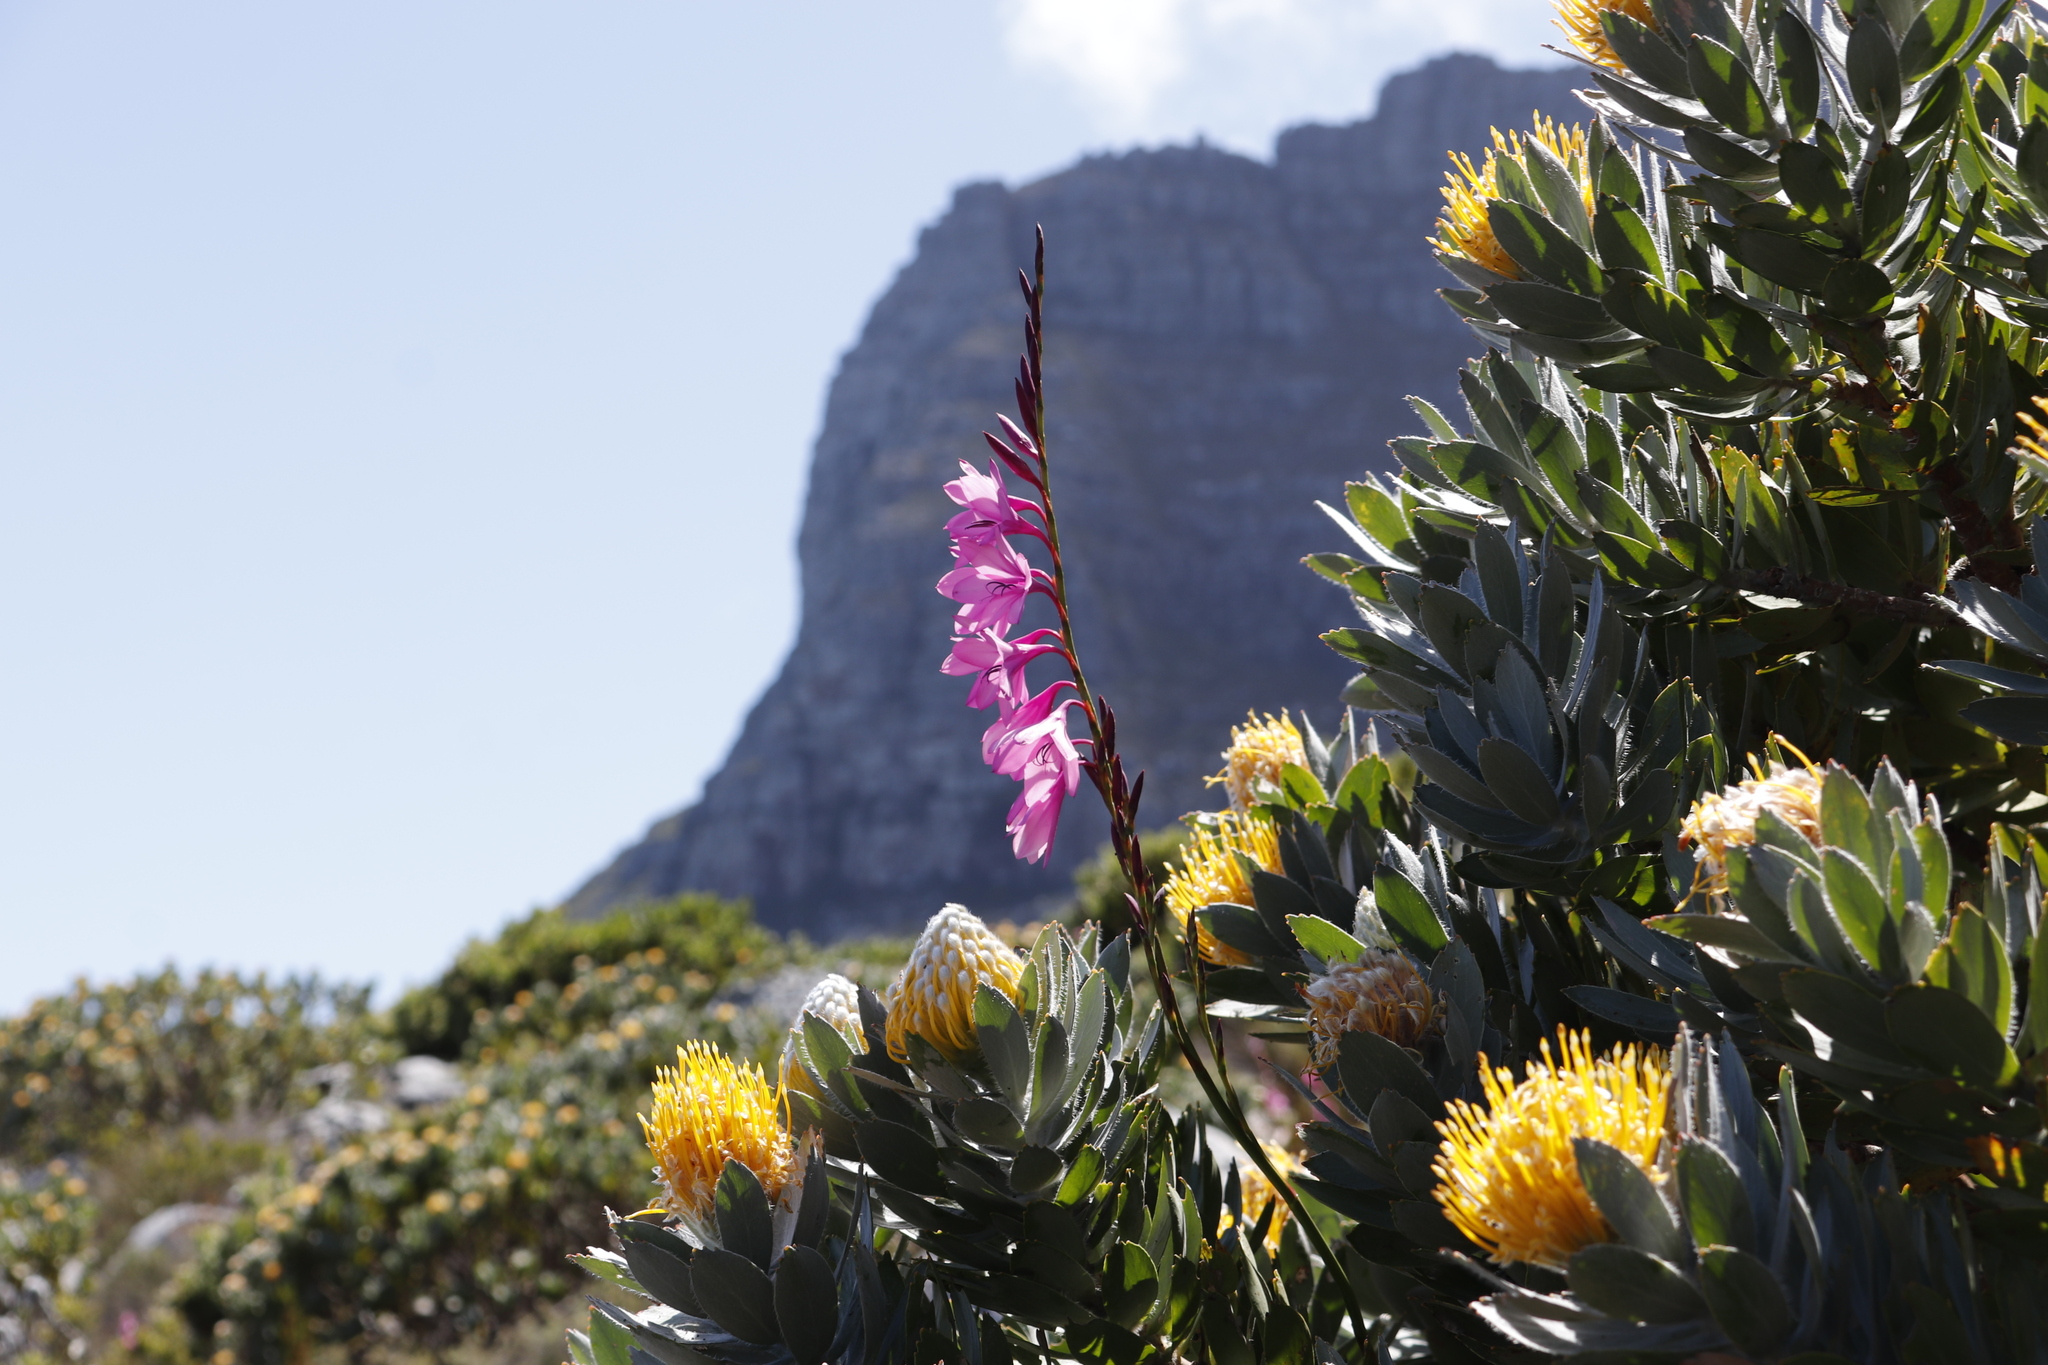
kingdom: Plantae
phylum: Tracheophyta
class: Liliopsida
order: Asparagales
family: Iridaceae
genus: Watsonia
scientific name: Watsonia borbonica
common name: Bugle-lily
